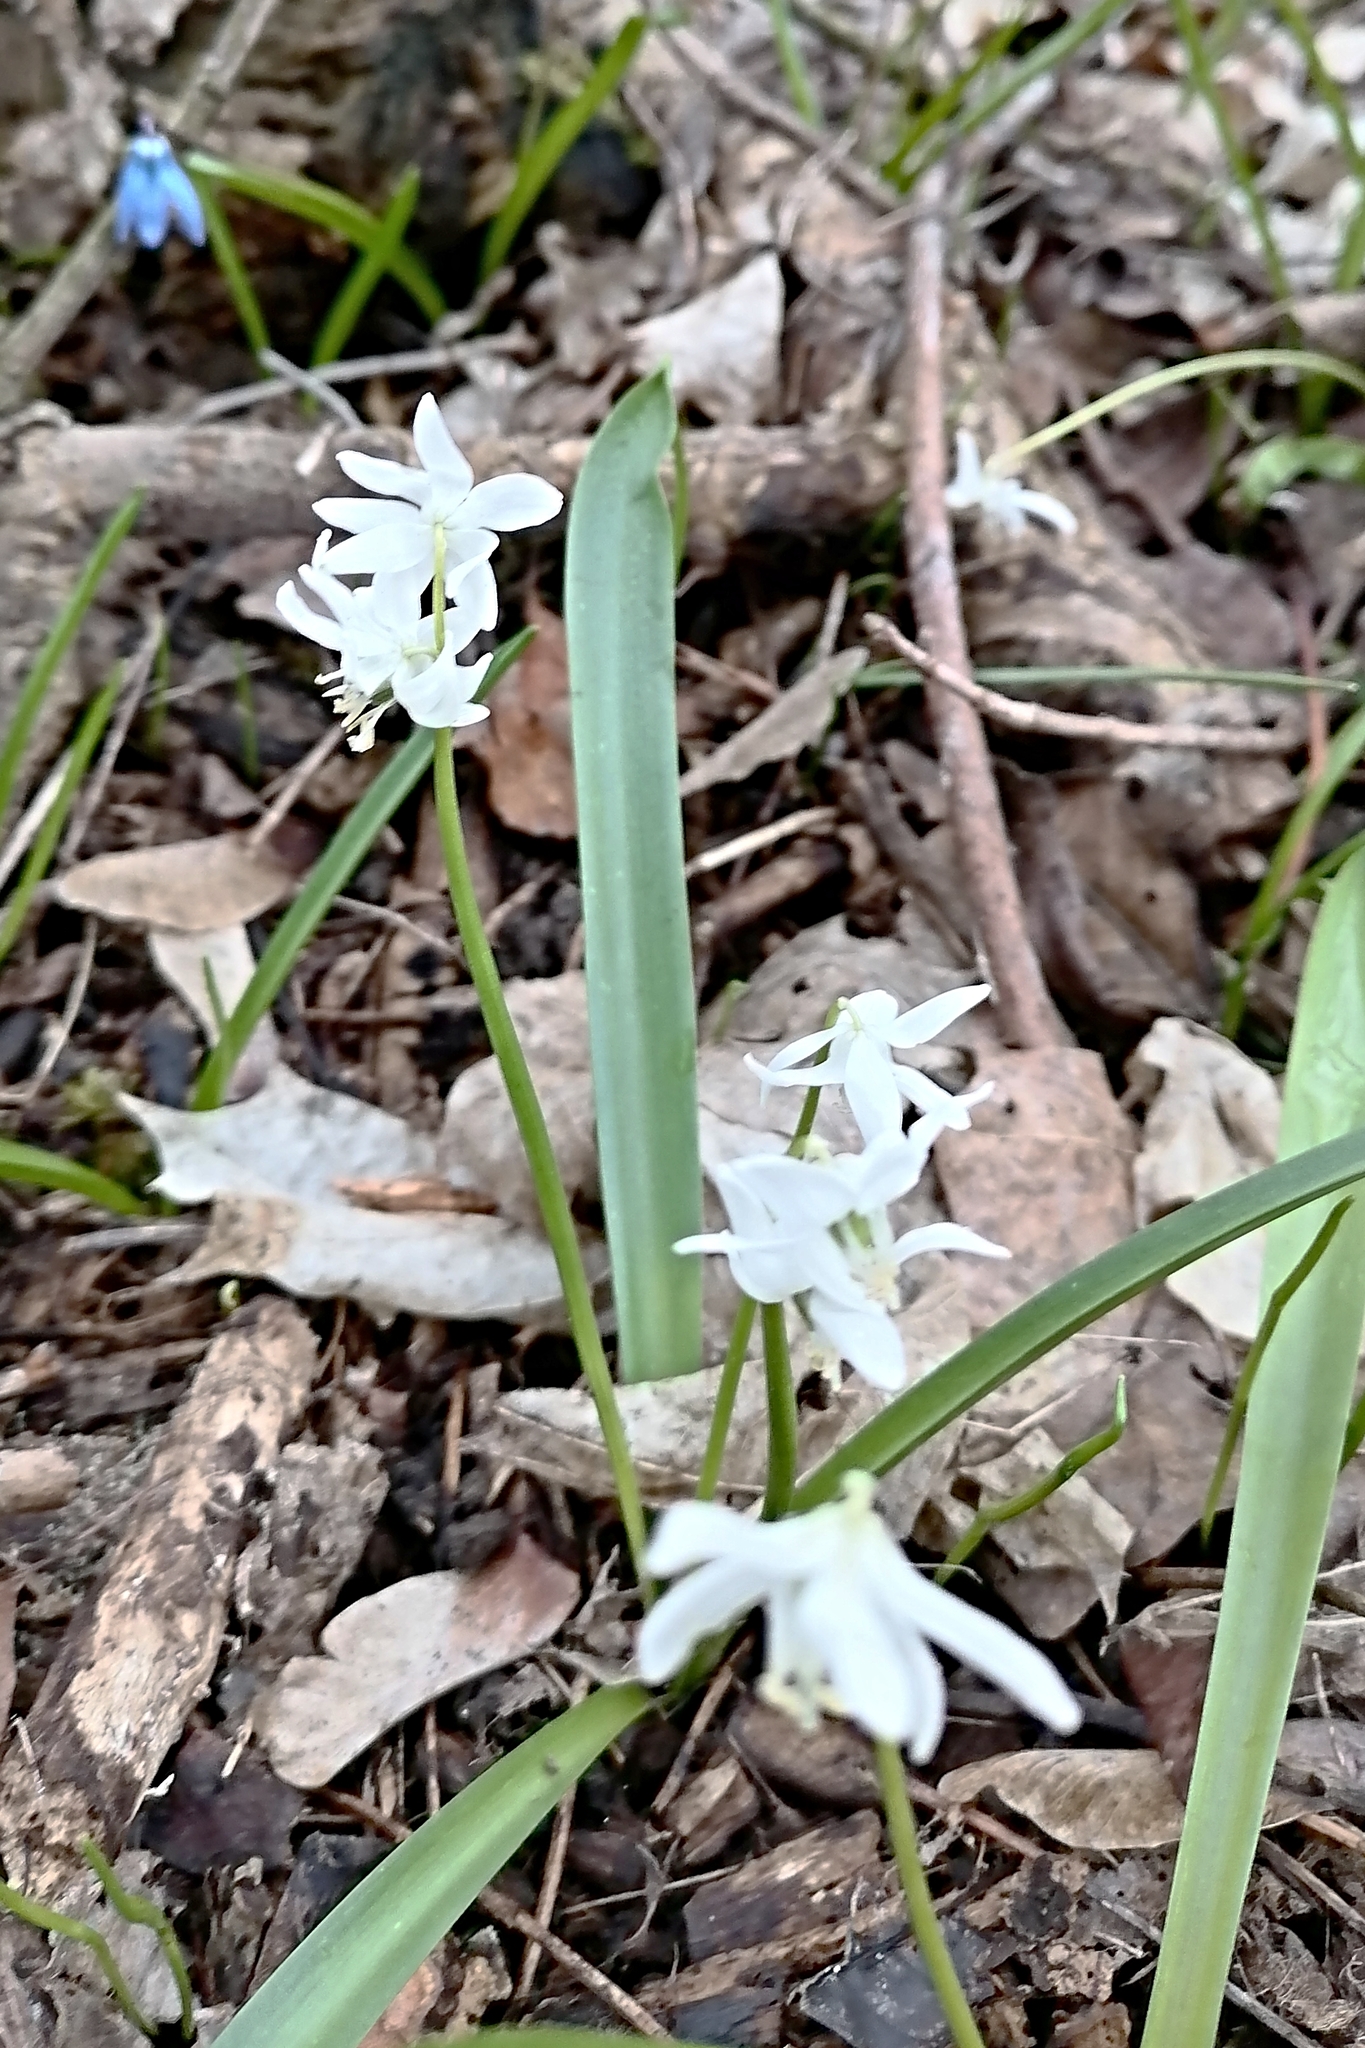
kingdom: Plantae
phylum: Tracheophyta
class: Liliopsida
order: Asparagales
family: Asparagaceae
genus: Scilla
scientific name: Scilla siberica
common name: Siberian squill
